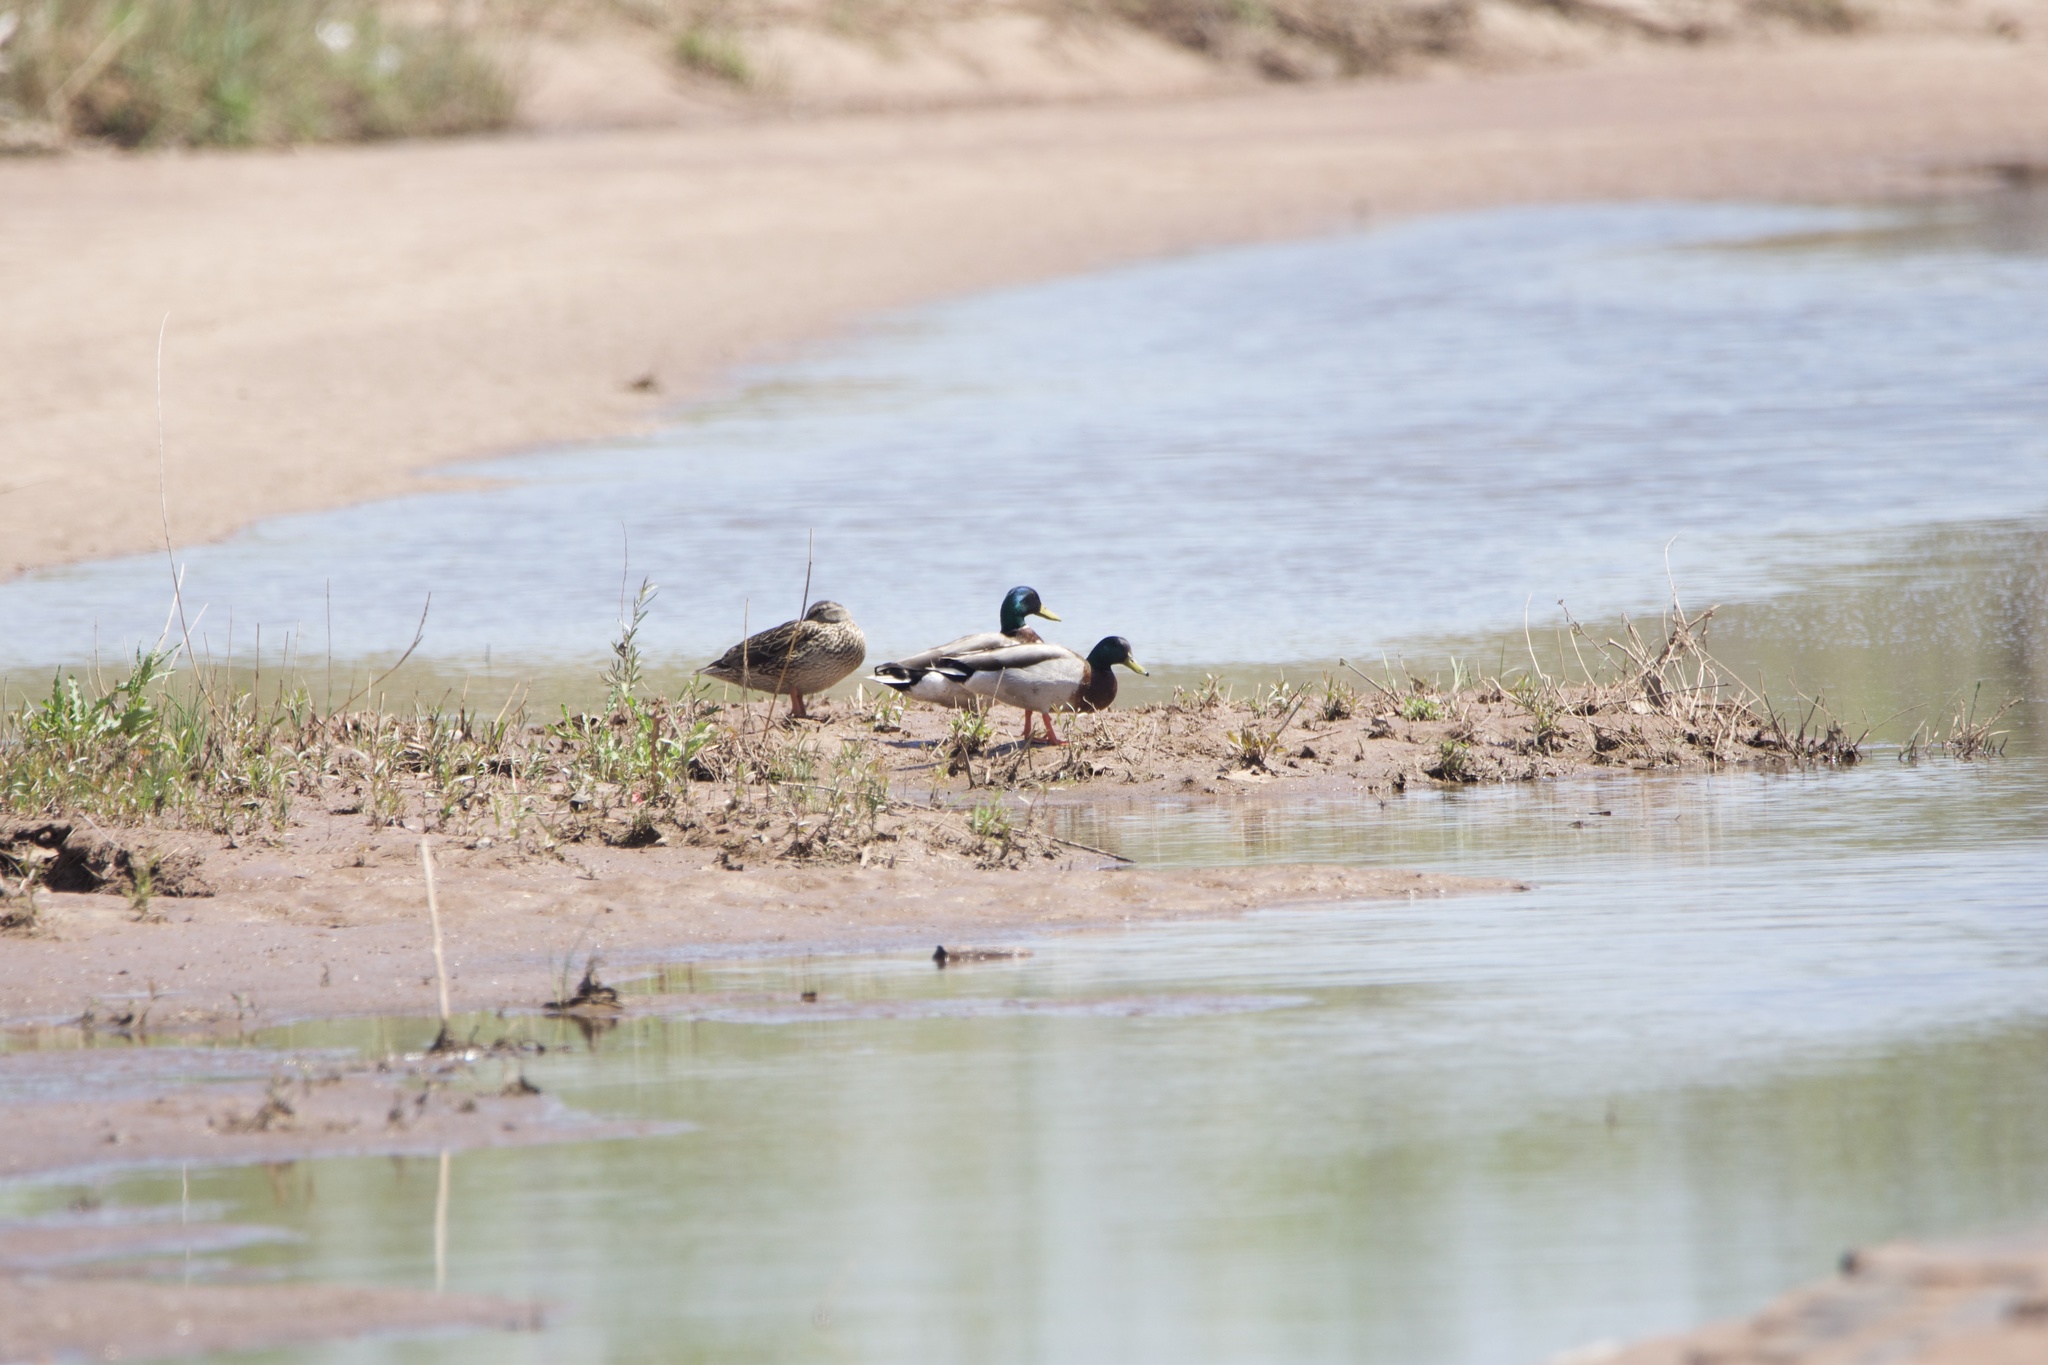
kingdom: Animalia
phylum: Chordata
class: Aves
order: Anseriformes
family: Anatidae
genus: Anas
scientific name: Anas platyrhynchos
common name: Mallard
